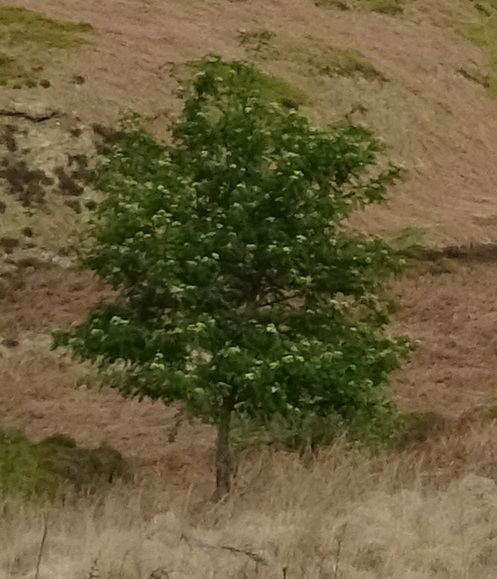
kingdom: Plantae
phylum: Tracheophyta
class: Magnoliopsida
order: Rosales
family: Rosaceae
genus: Sorbus
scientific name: Sorbus aucuparia
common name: Rowan
